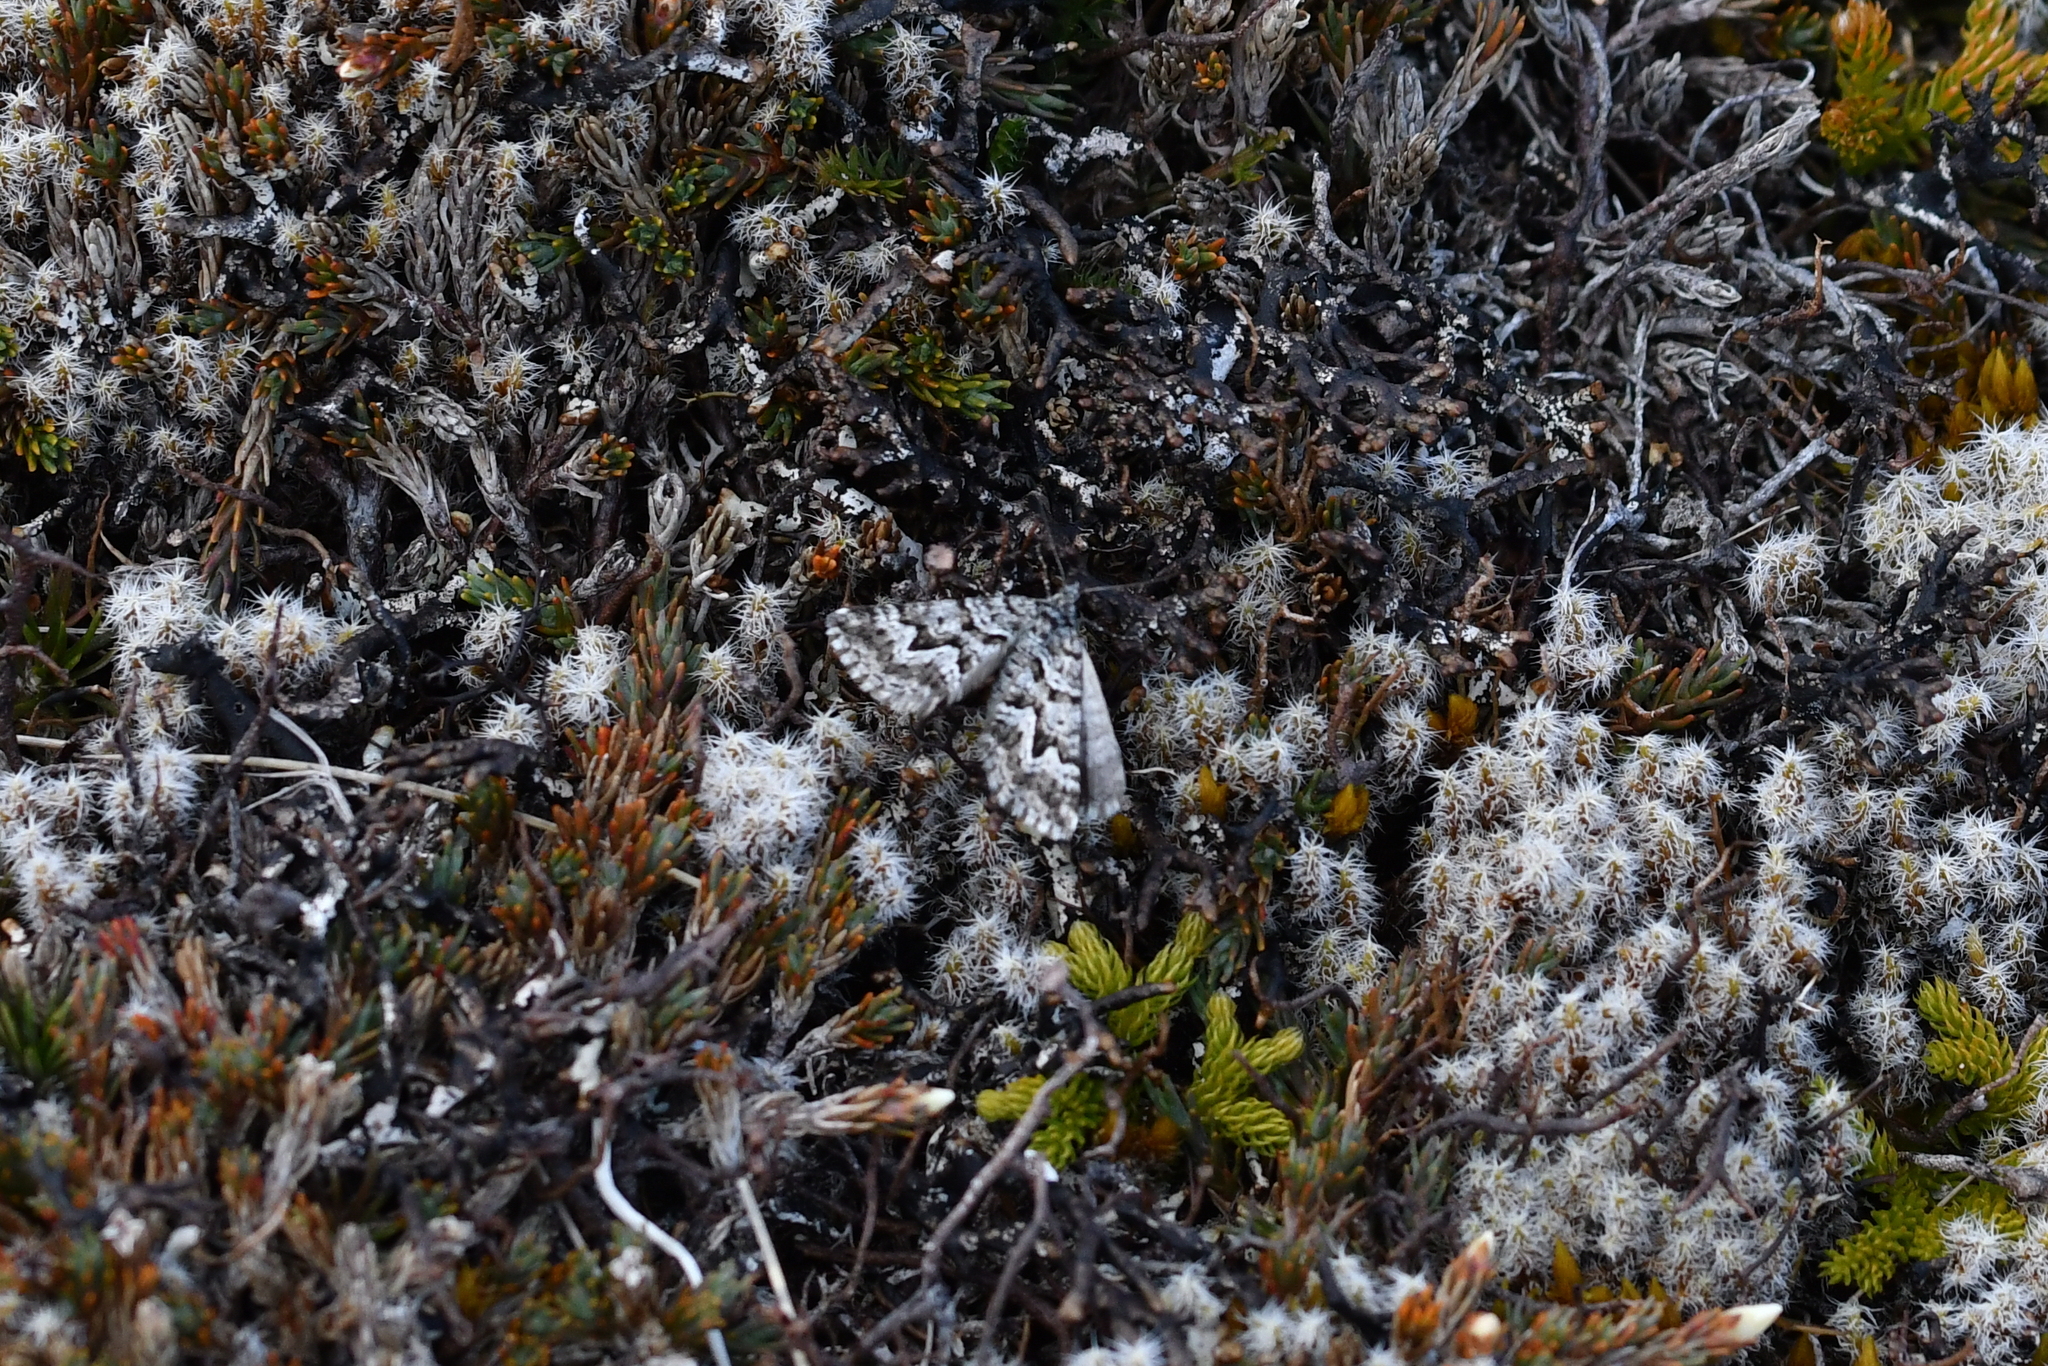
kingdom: Animalia
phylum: Arthropoda
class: Insecta
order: Lepidoptera
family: Geometridae
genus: Aponotoreas
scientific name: Aponotoreas anthracias
